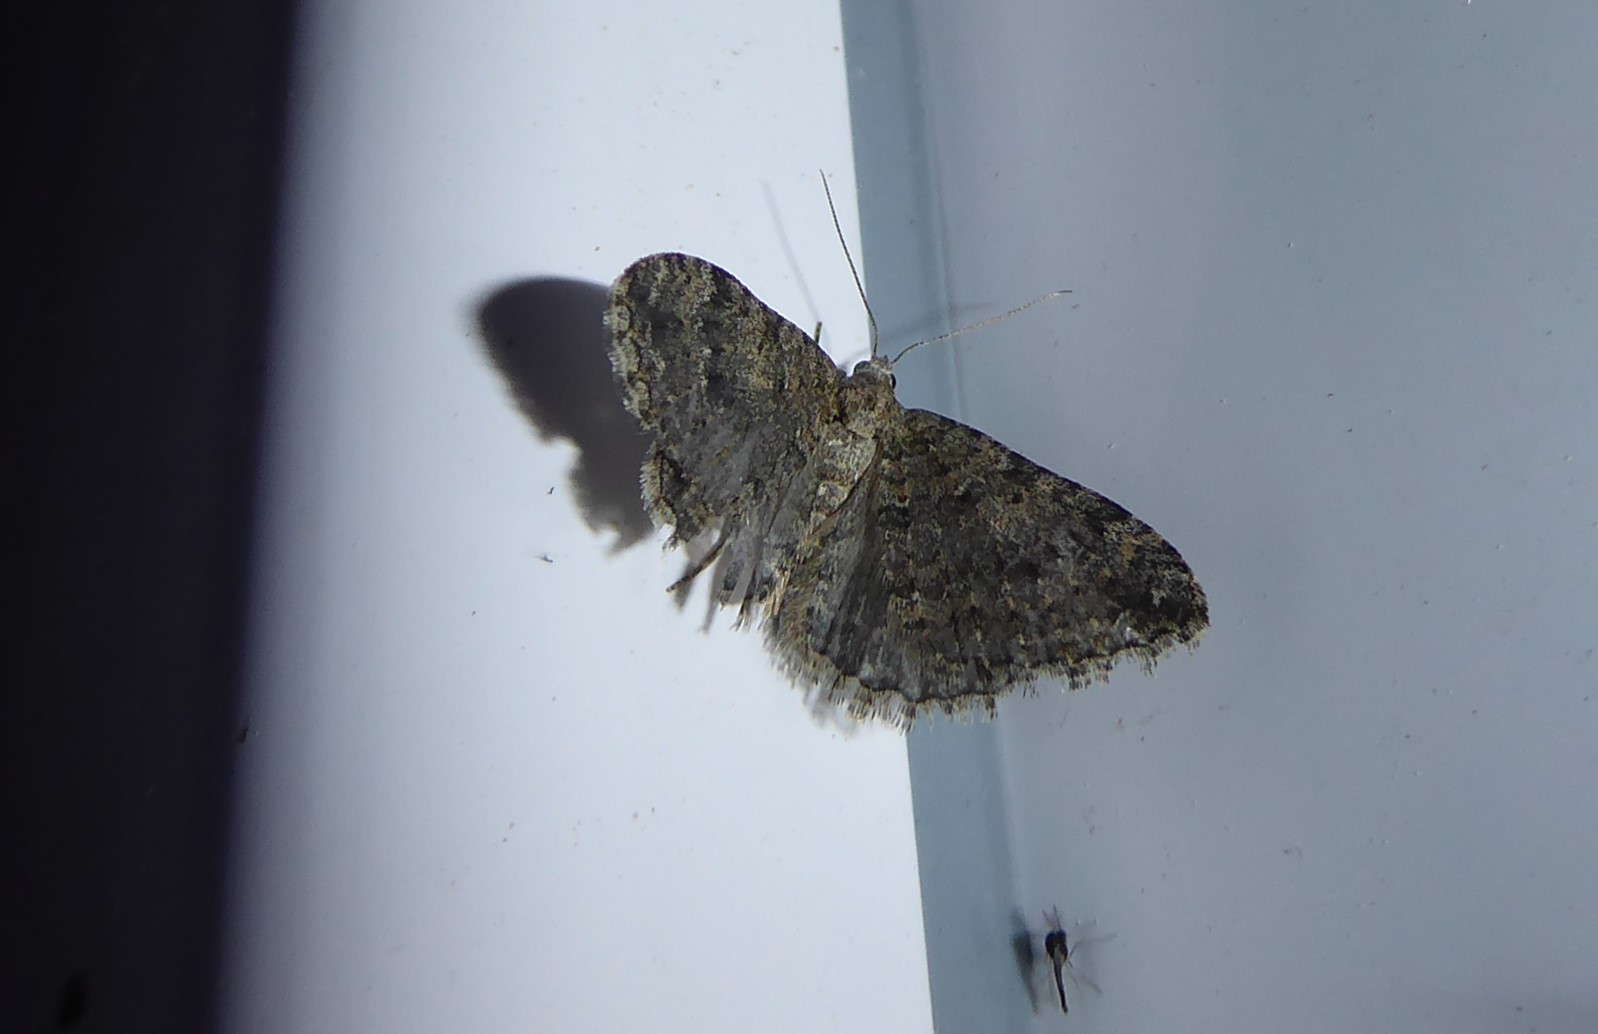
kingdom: Animalia
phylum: Arthropoda
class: Insecta
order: Lepidoptera
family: Geometridae
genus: Helastia
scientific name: Helastia corcularia
